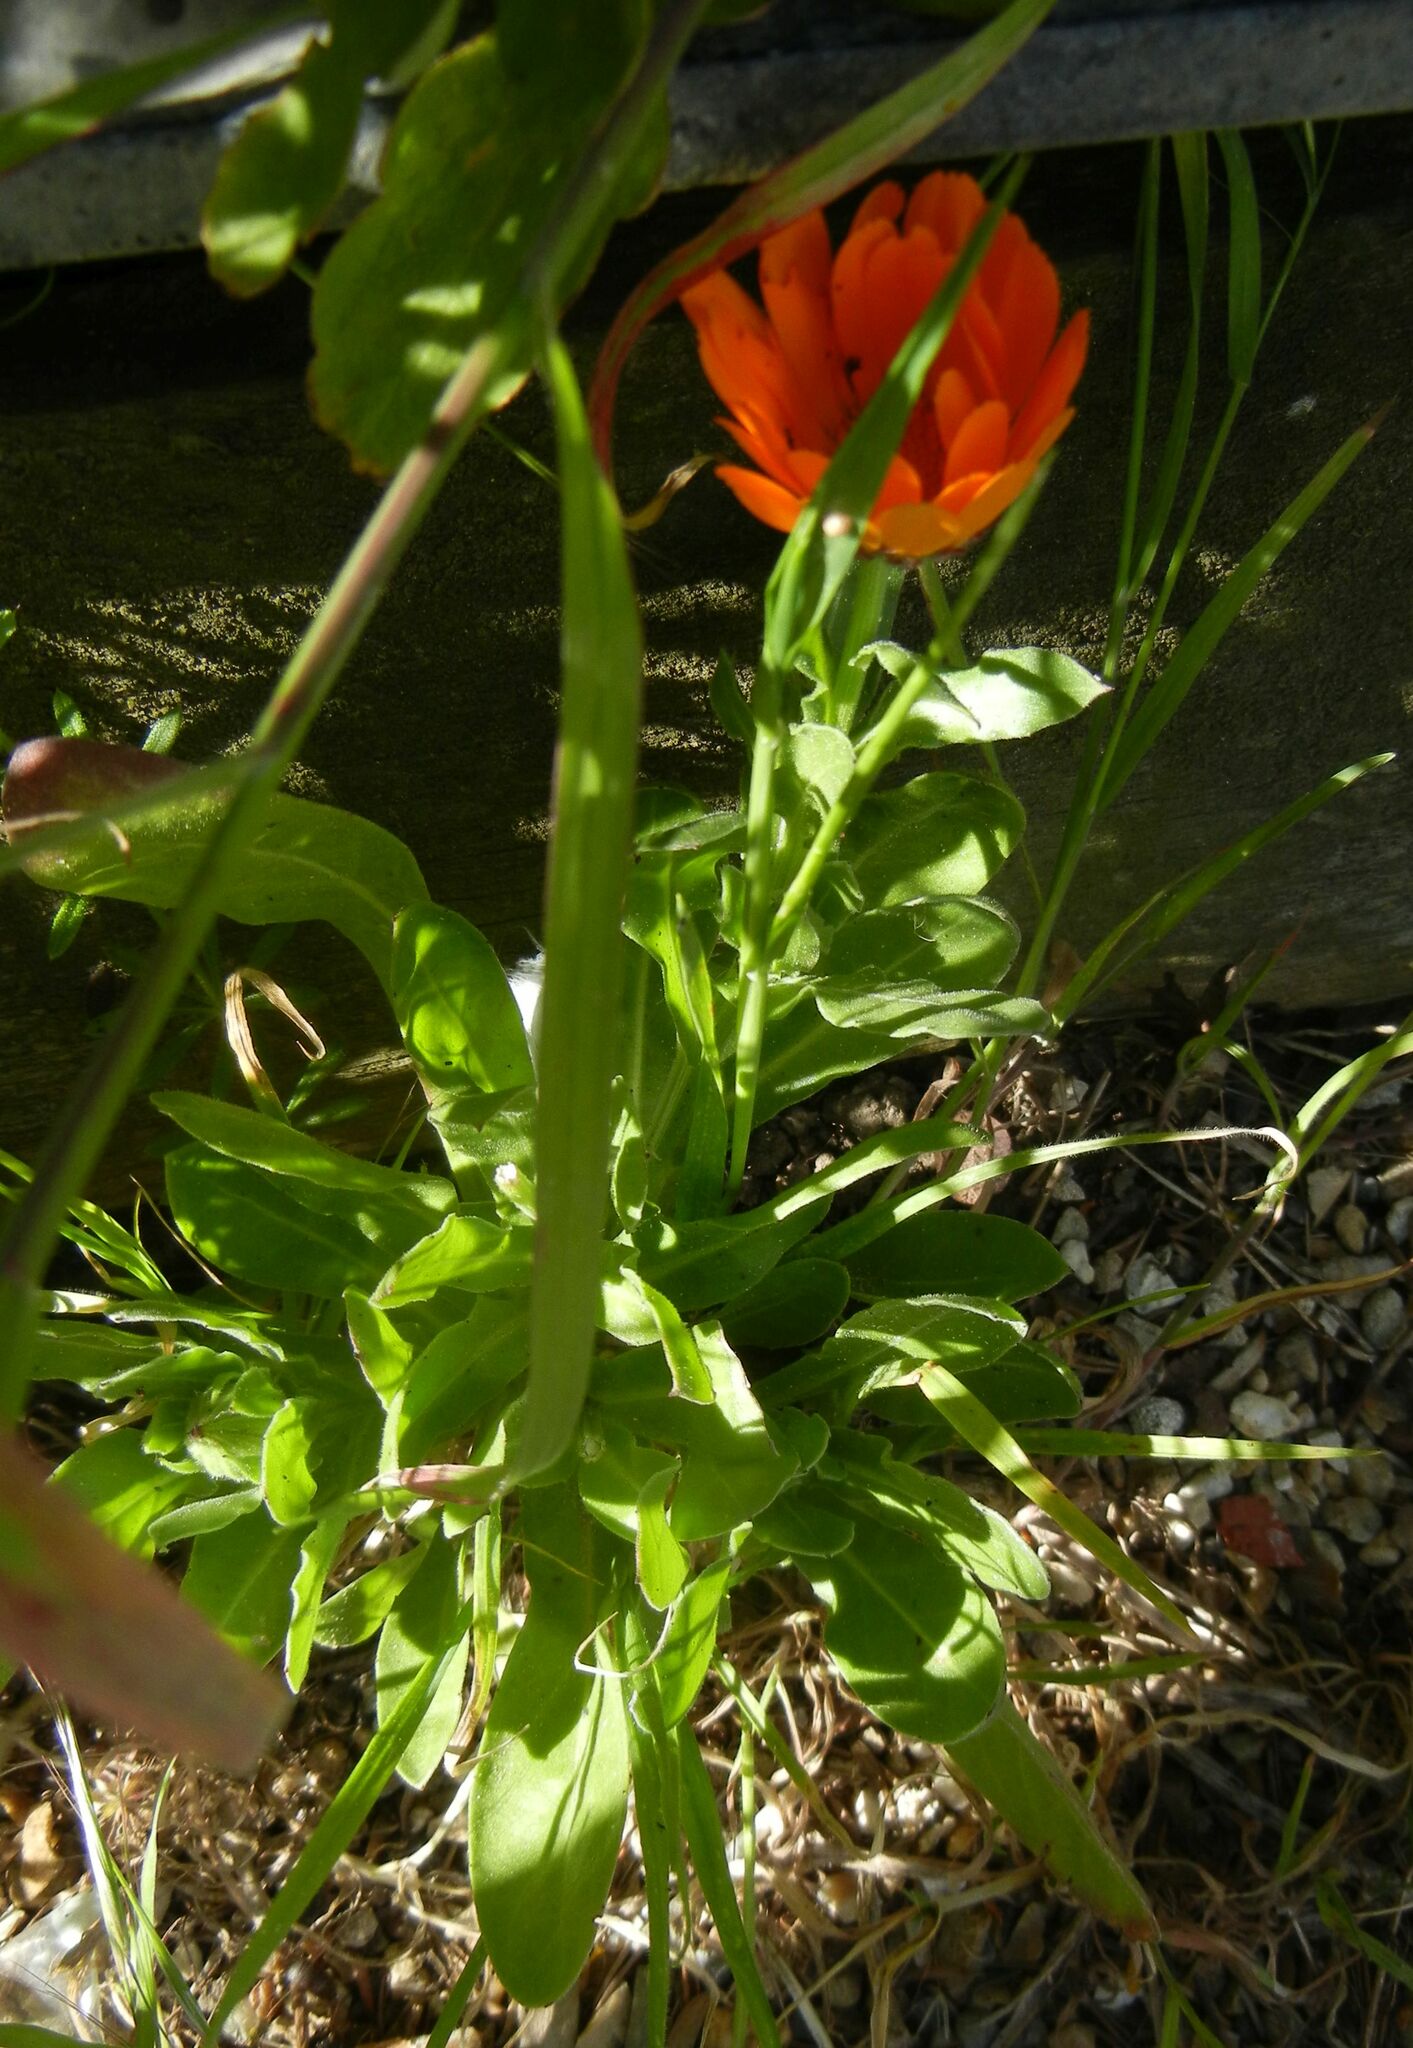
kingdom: Plantae
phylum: Tracheophyta
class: Magnoliopsida
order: Asterales
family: Asteraceae
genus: Calendula
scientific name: Calendula officinalis
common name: Pot marigold
